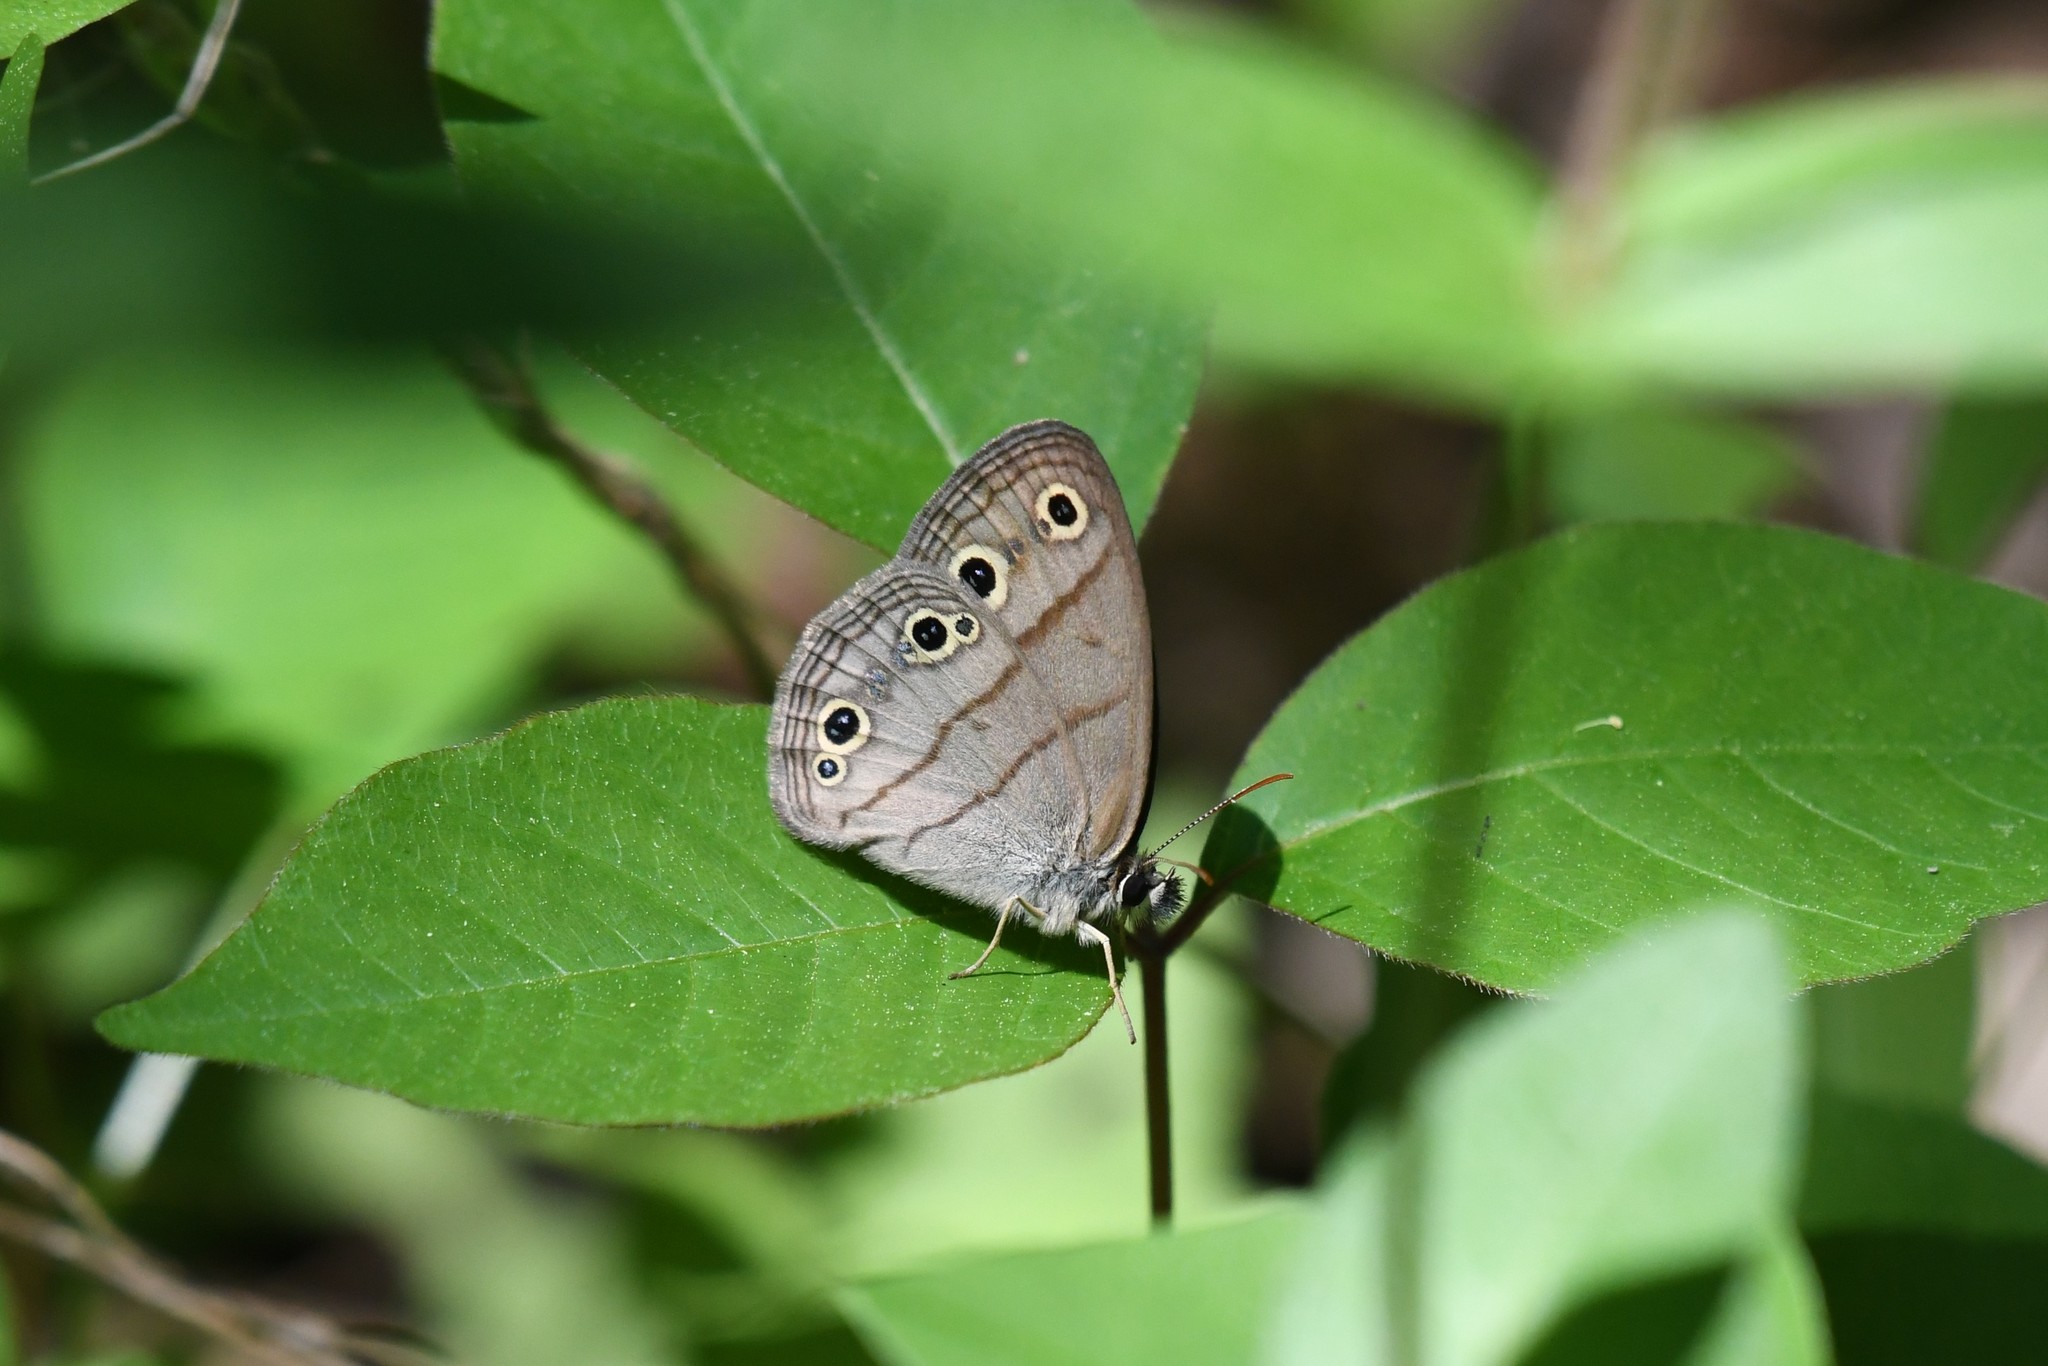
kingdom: Animalia
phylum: Arthropoda
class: Insecta
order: Lepidoptera
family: Nymphalidae
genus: Euptychia
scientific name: Euptychia cymela
